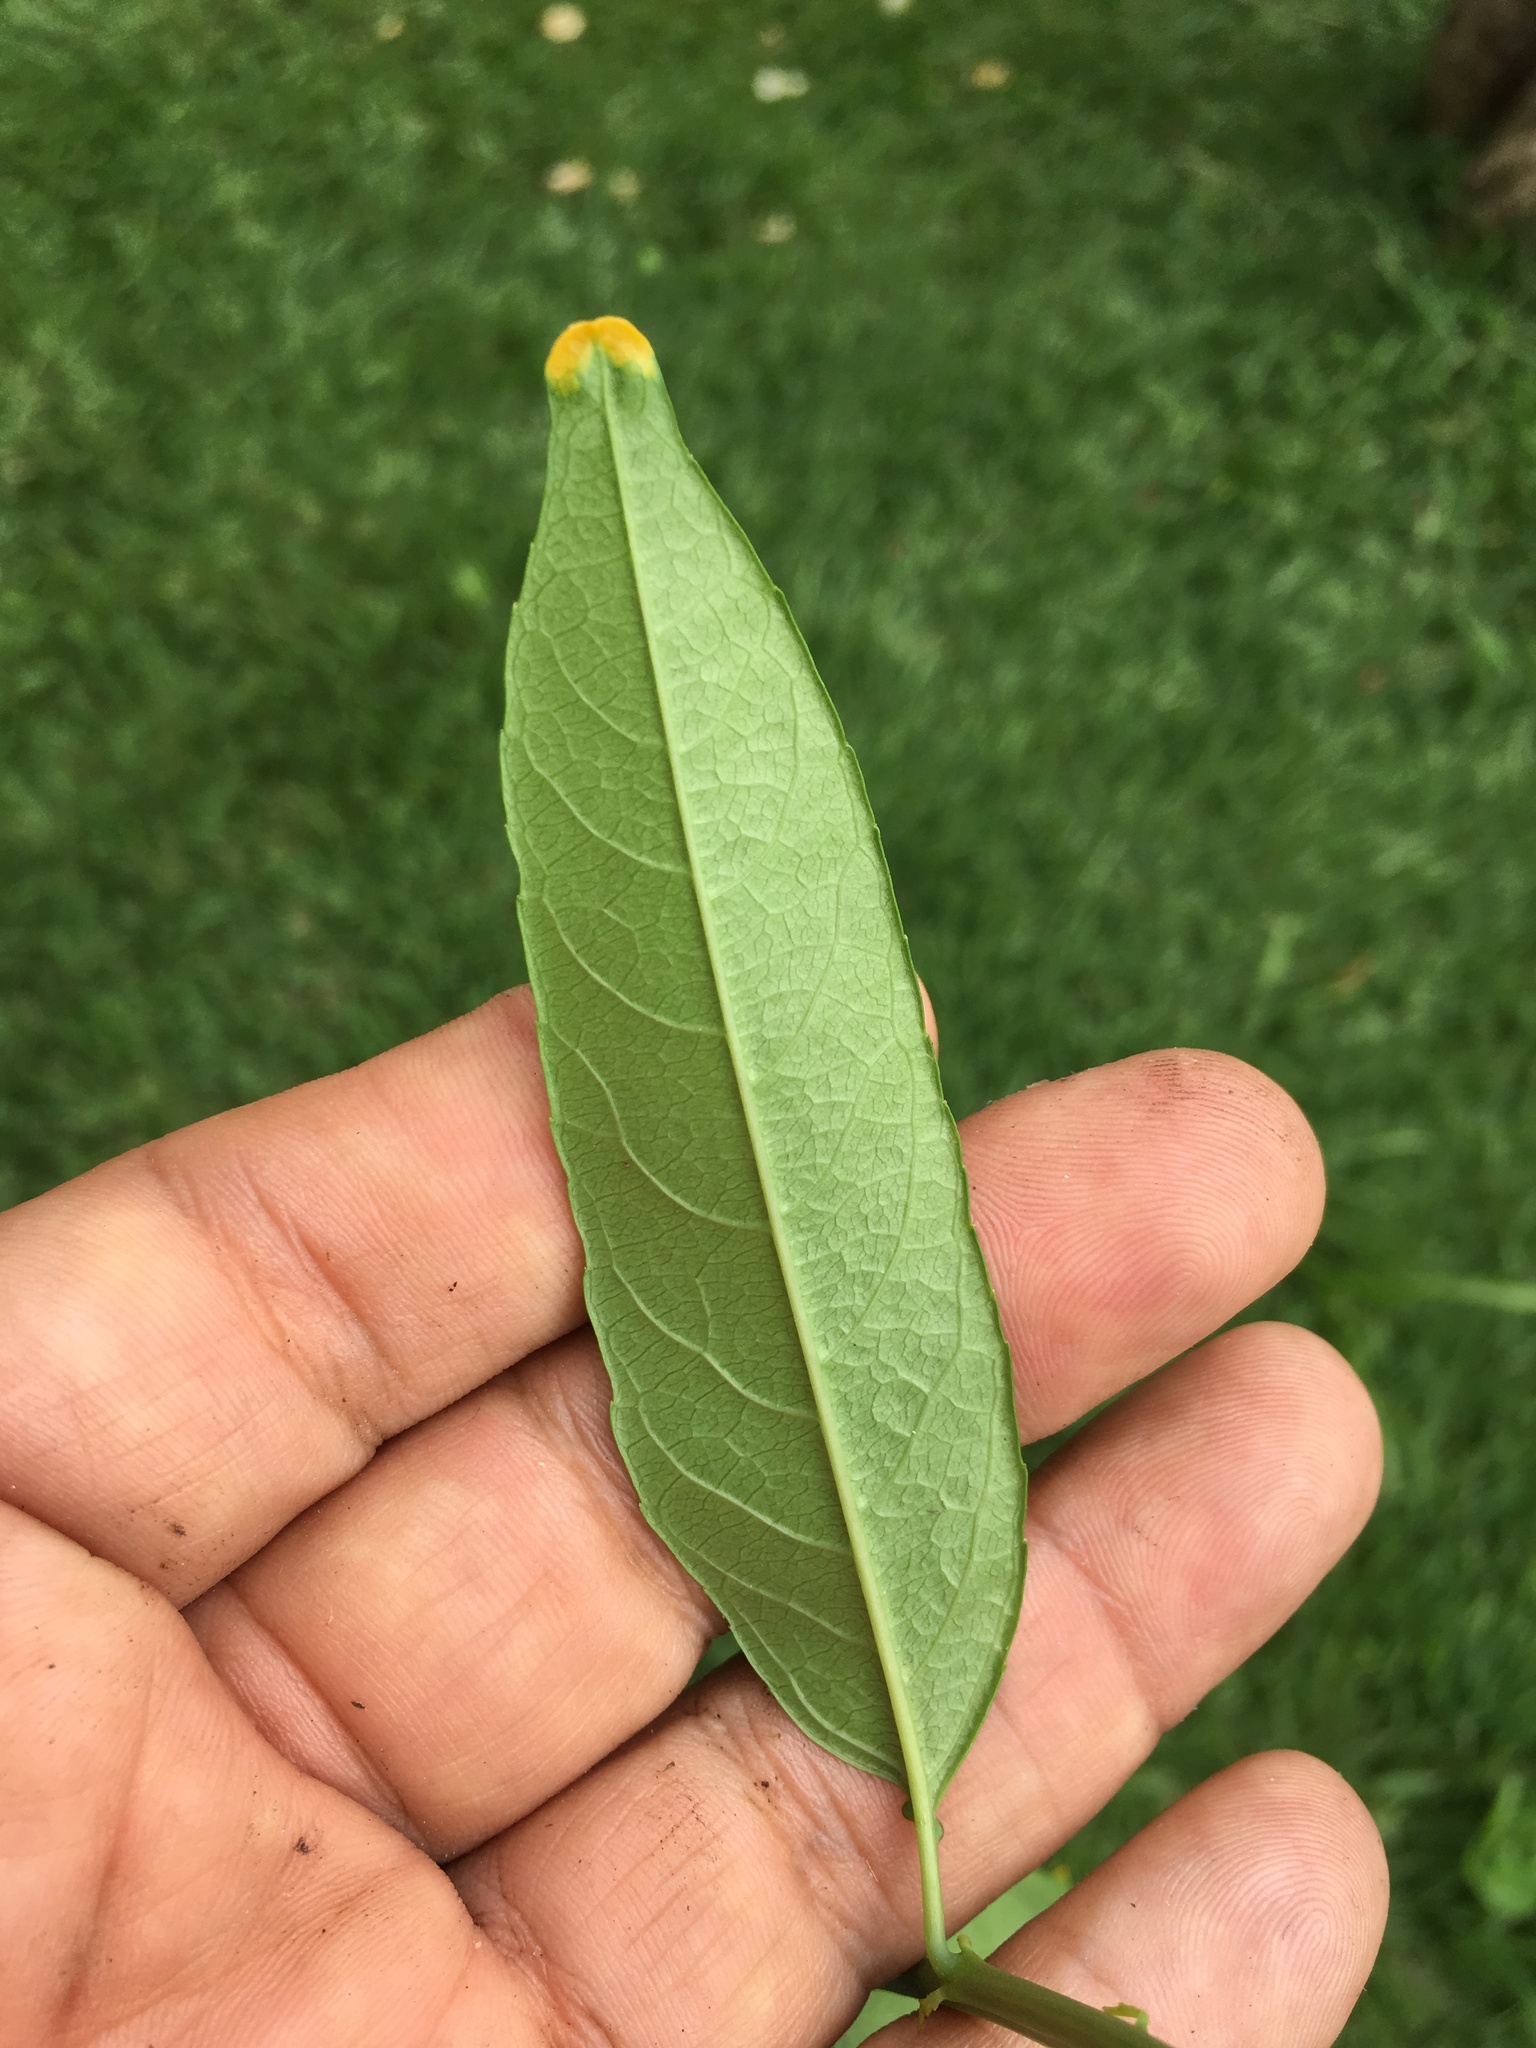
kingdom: Plantae
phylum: Tracheophyta
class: Magnoliopsida
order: Malpighiales
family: Passifloraceae
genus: Passiflora
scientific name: Passiflora guazumifolia
